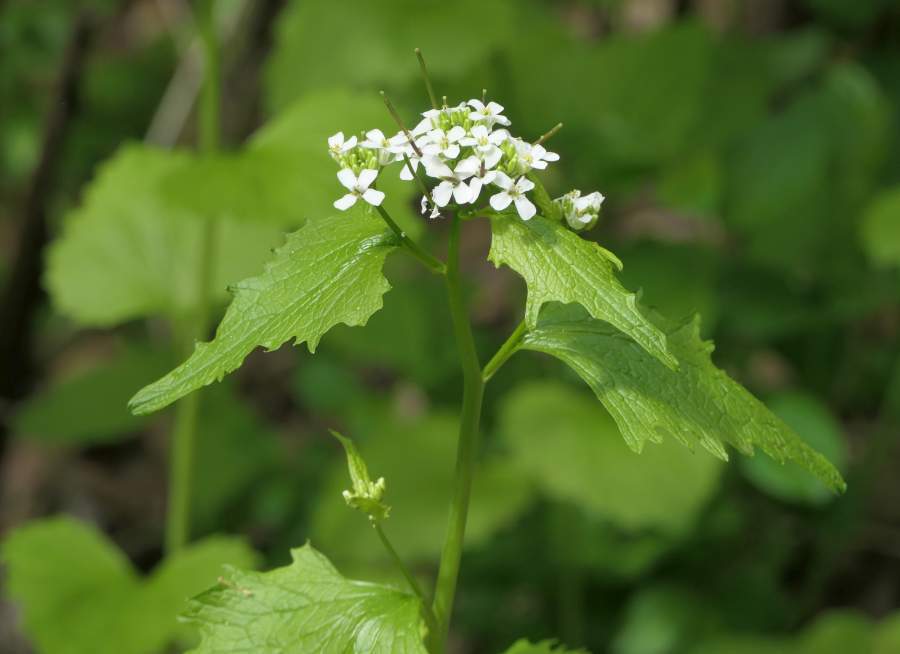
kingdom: Plantae
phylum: Tracheophyta
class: Magnoliopsida
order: Brassicales
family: Brassicaceae
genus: Alliaria
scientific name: Alliaria petiolata
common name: Garlic mustard
